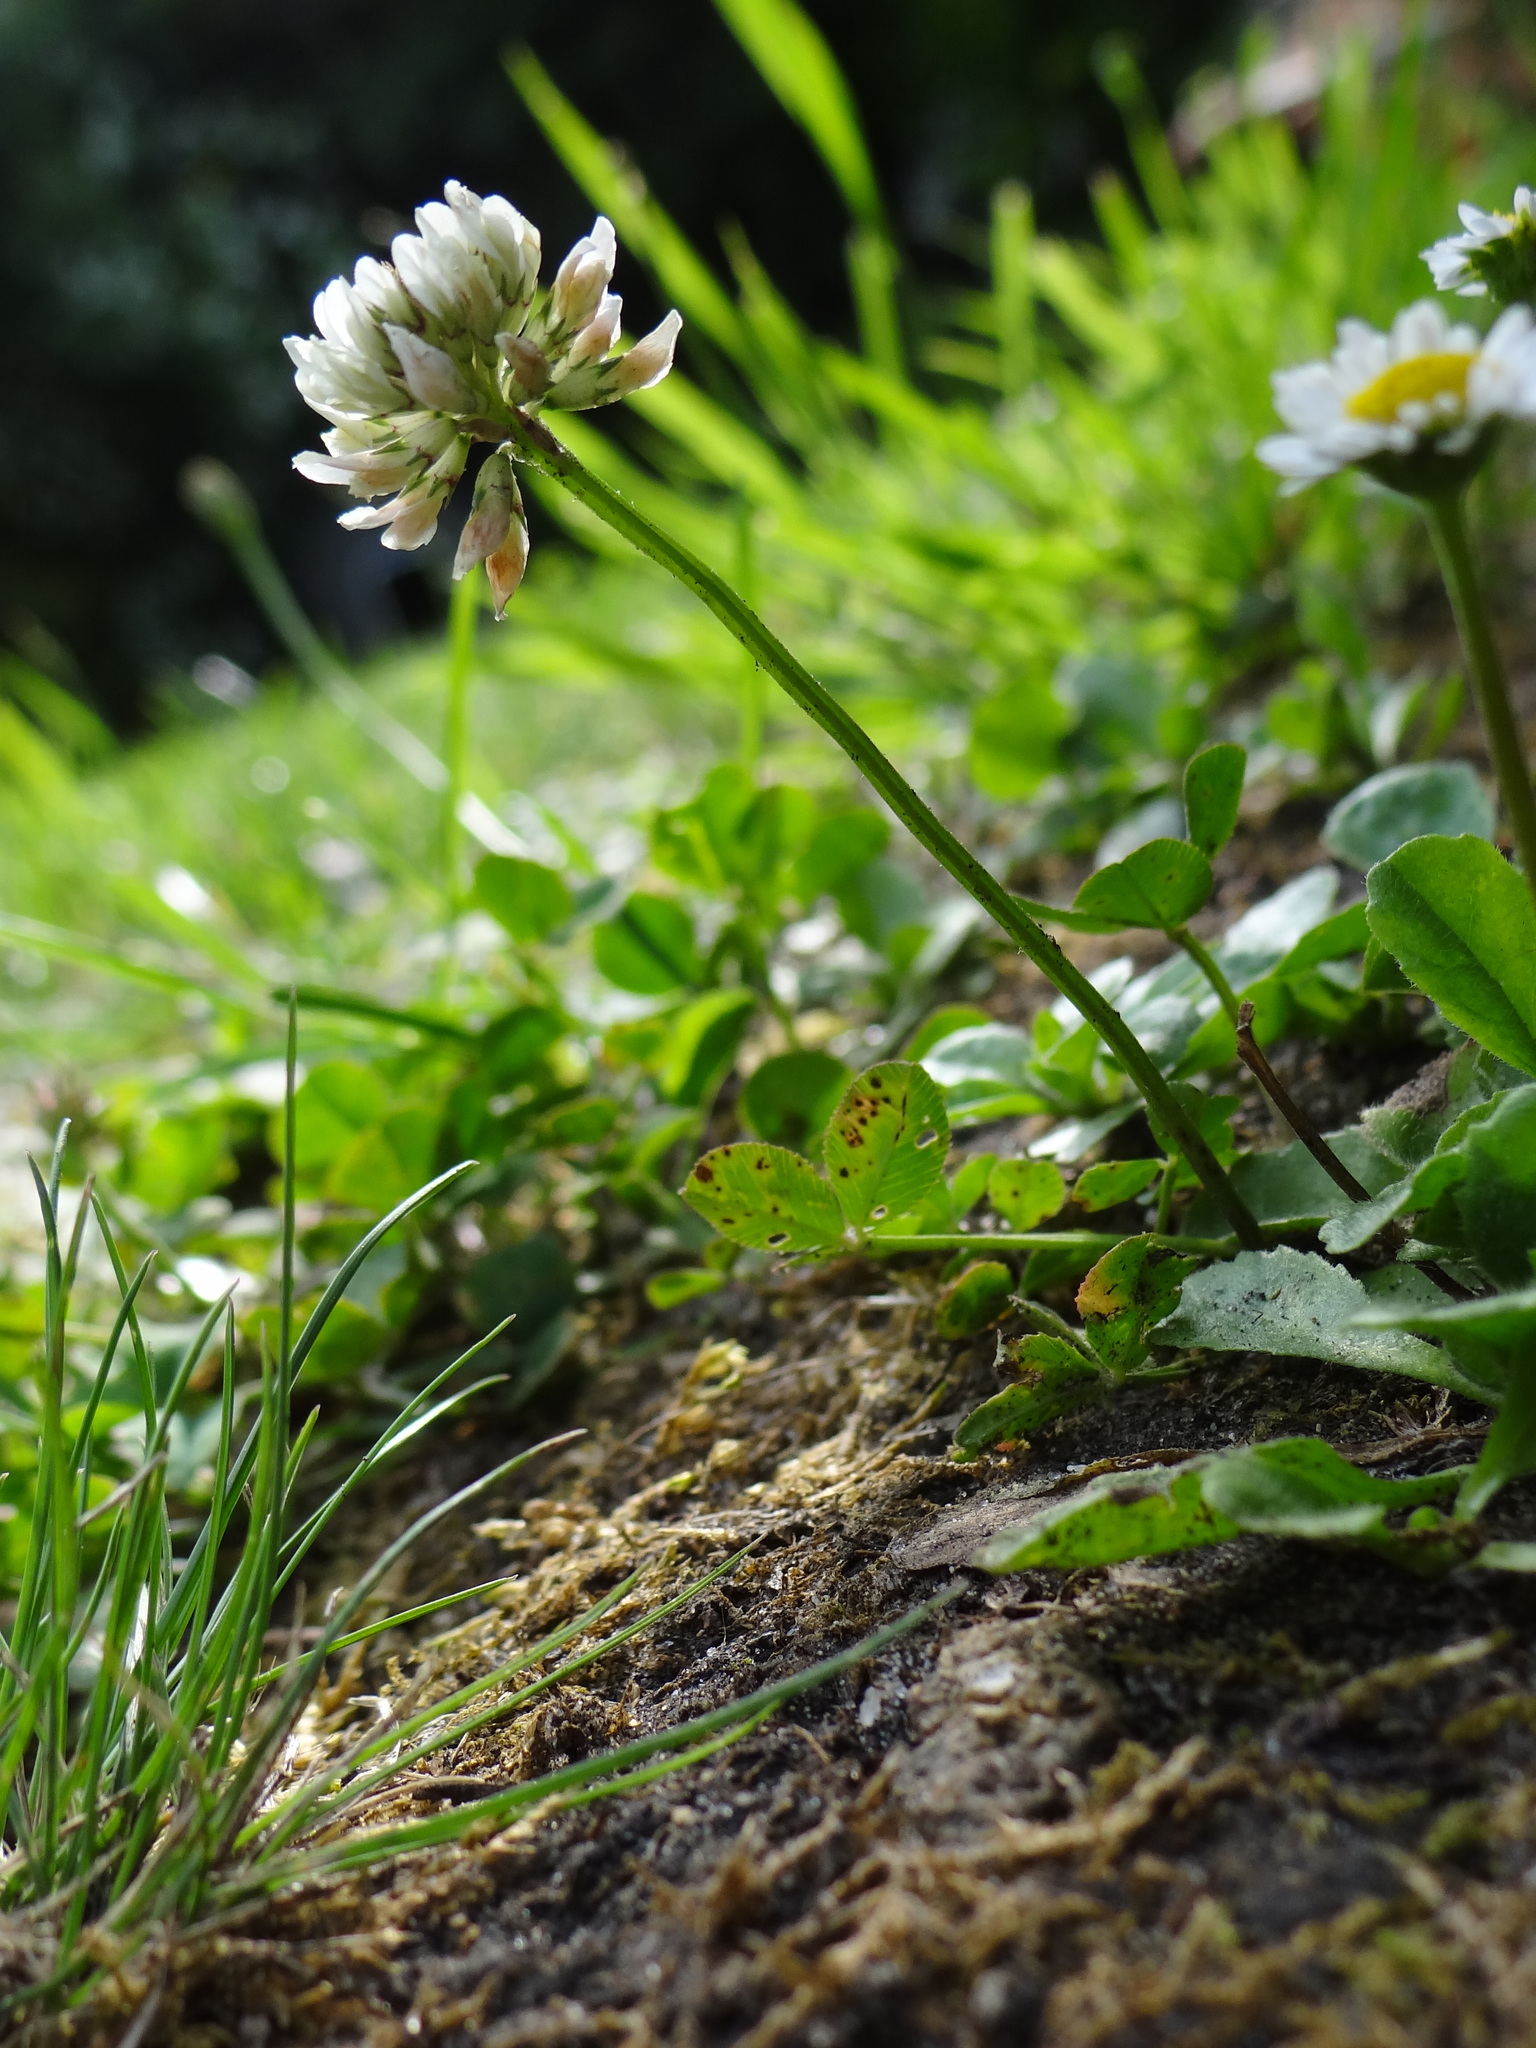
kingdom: Plantae
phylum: Tracheophyta
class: Magnoliopsida
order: Fabales
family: Fabaceae
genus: Trifolium
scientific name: Trifolium repens
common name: White clover
